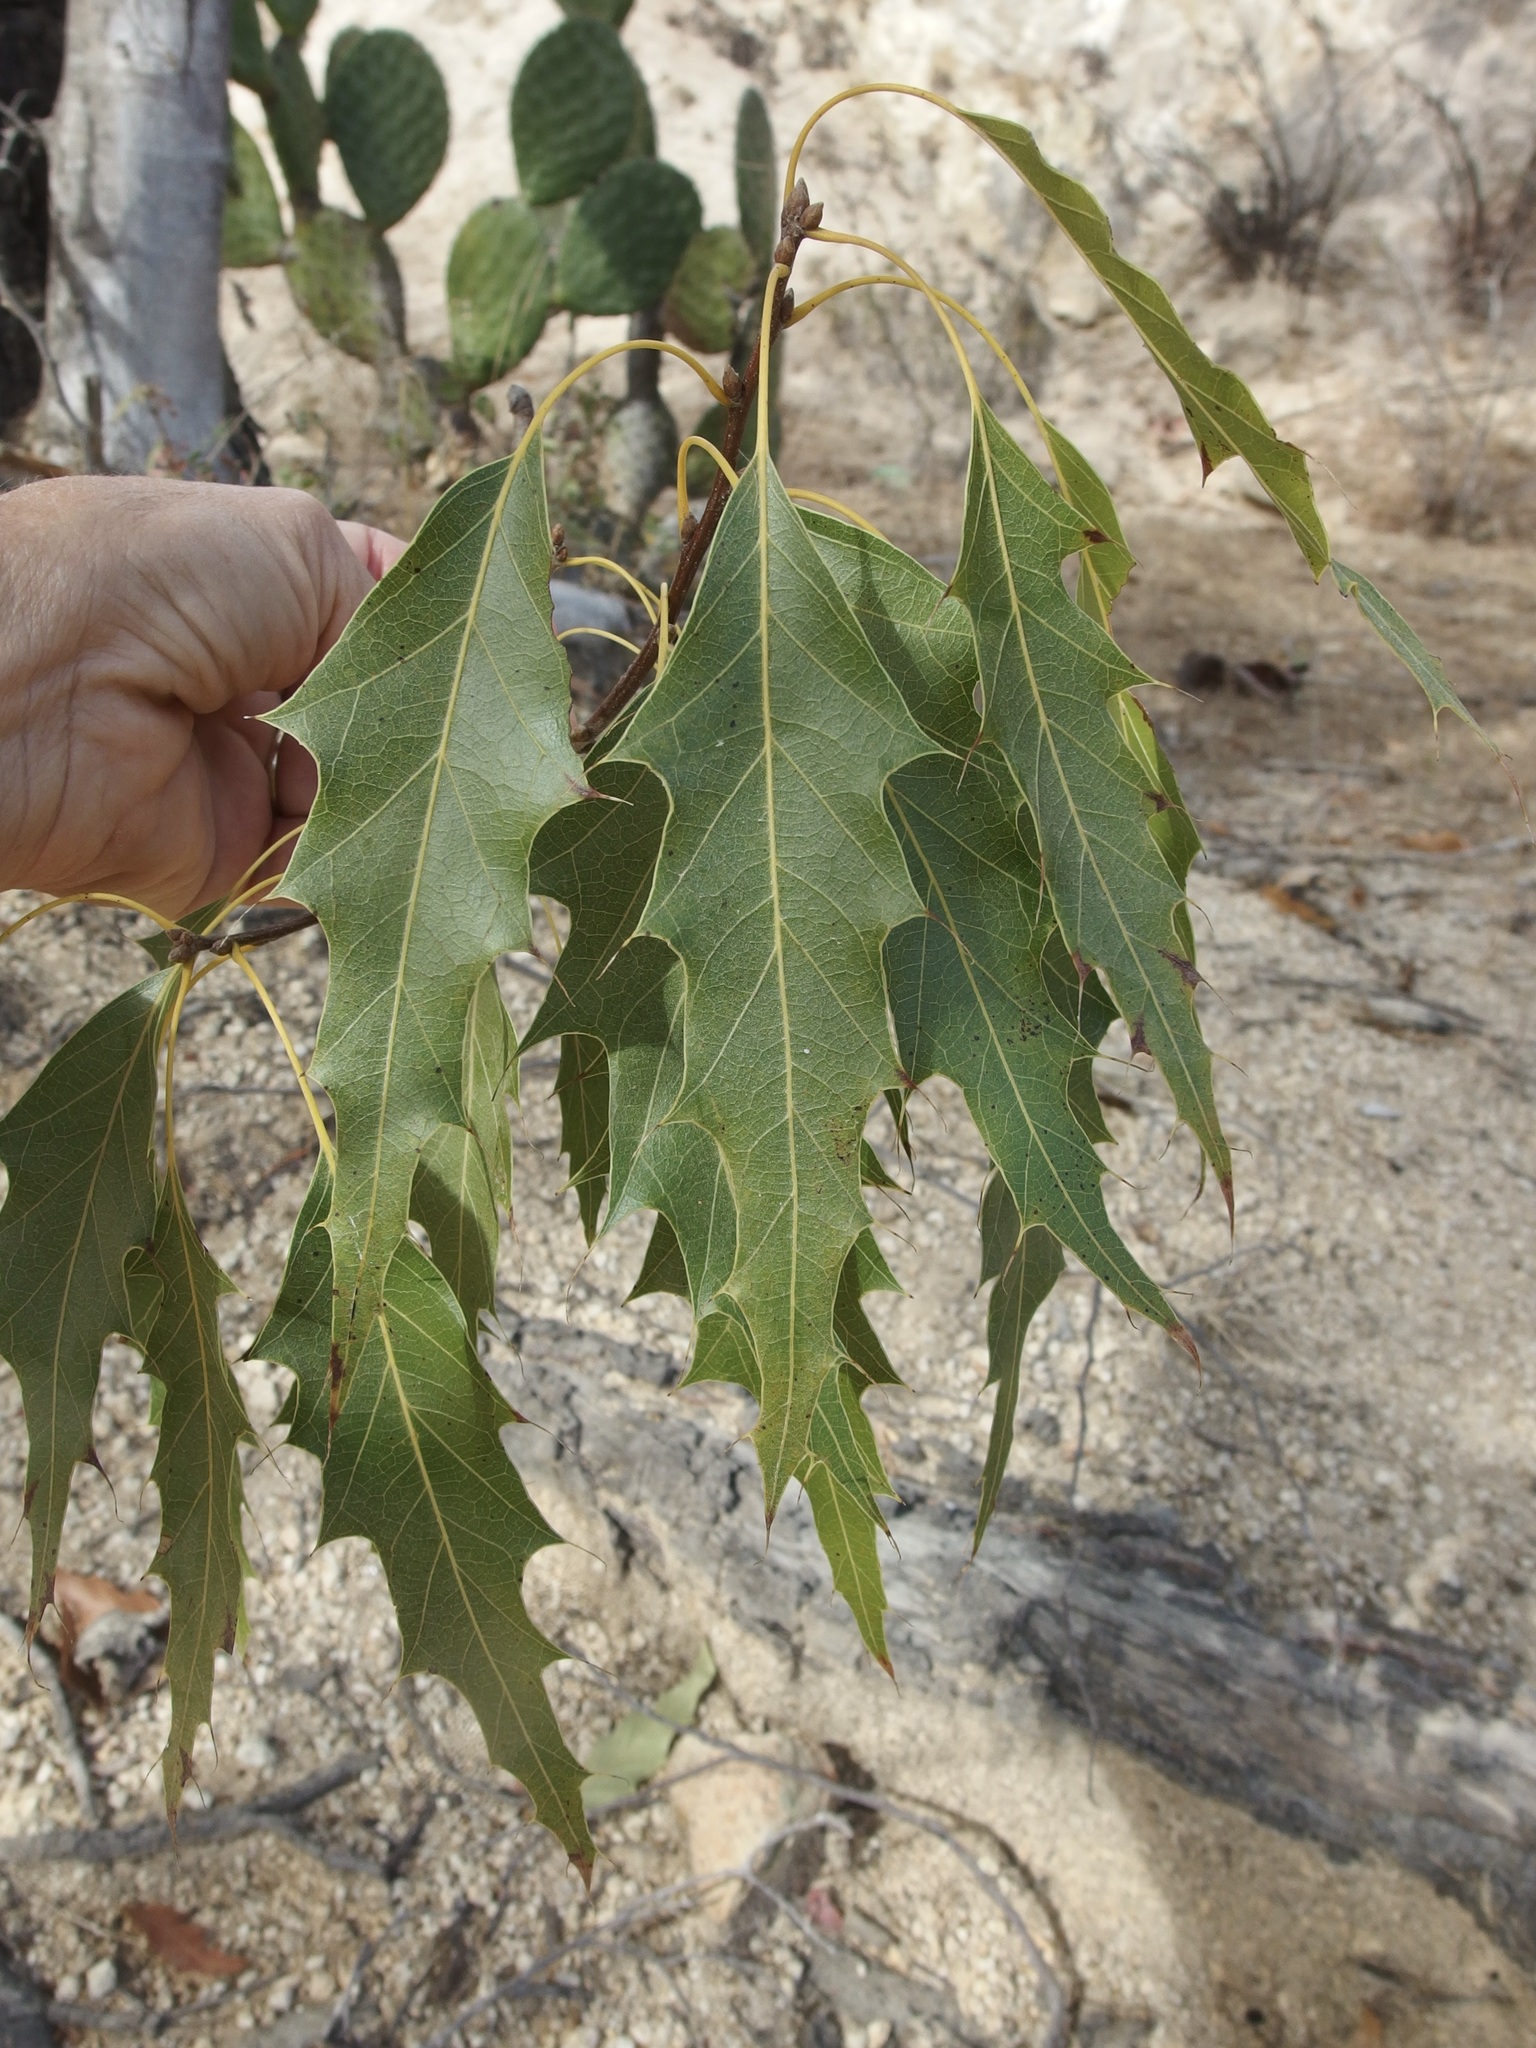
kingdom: Plantae
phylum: Tracheophyta
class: Magnoliopsida
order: Fagales
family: Fagaceae
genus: Quercus
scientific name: Quercus albocincta
